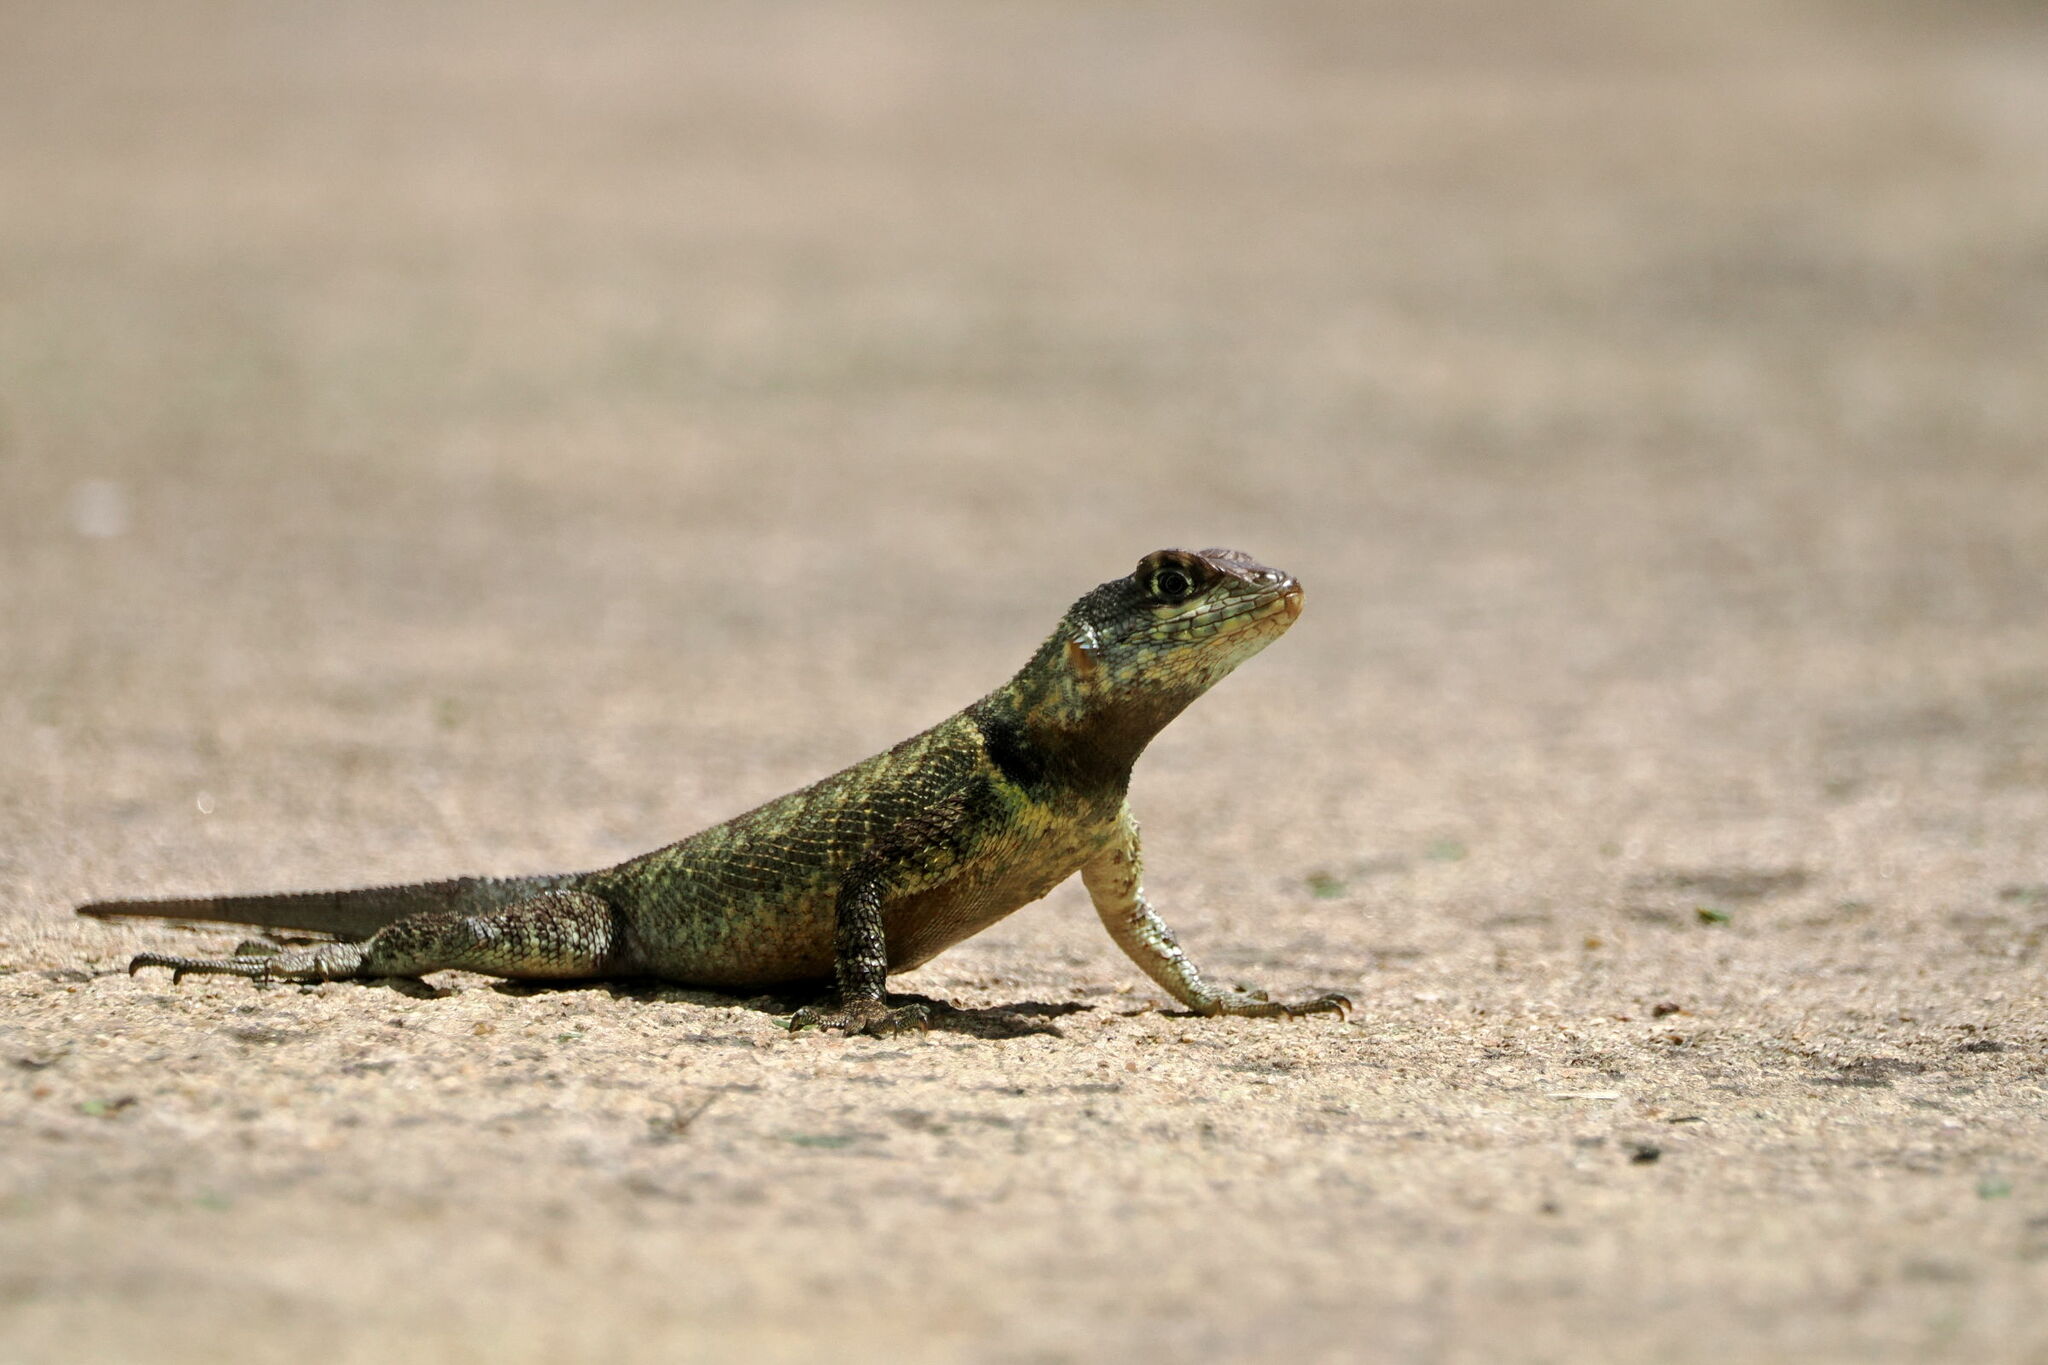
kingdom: Animalia
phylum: Chordata
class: Squamata
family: Tropiduridae
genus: Tropidurus
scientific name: Tropidurus hispidus
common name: Peters' lava lizard
